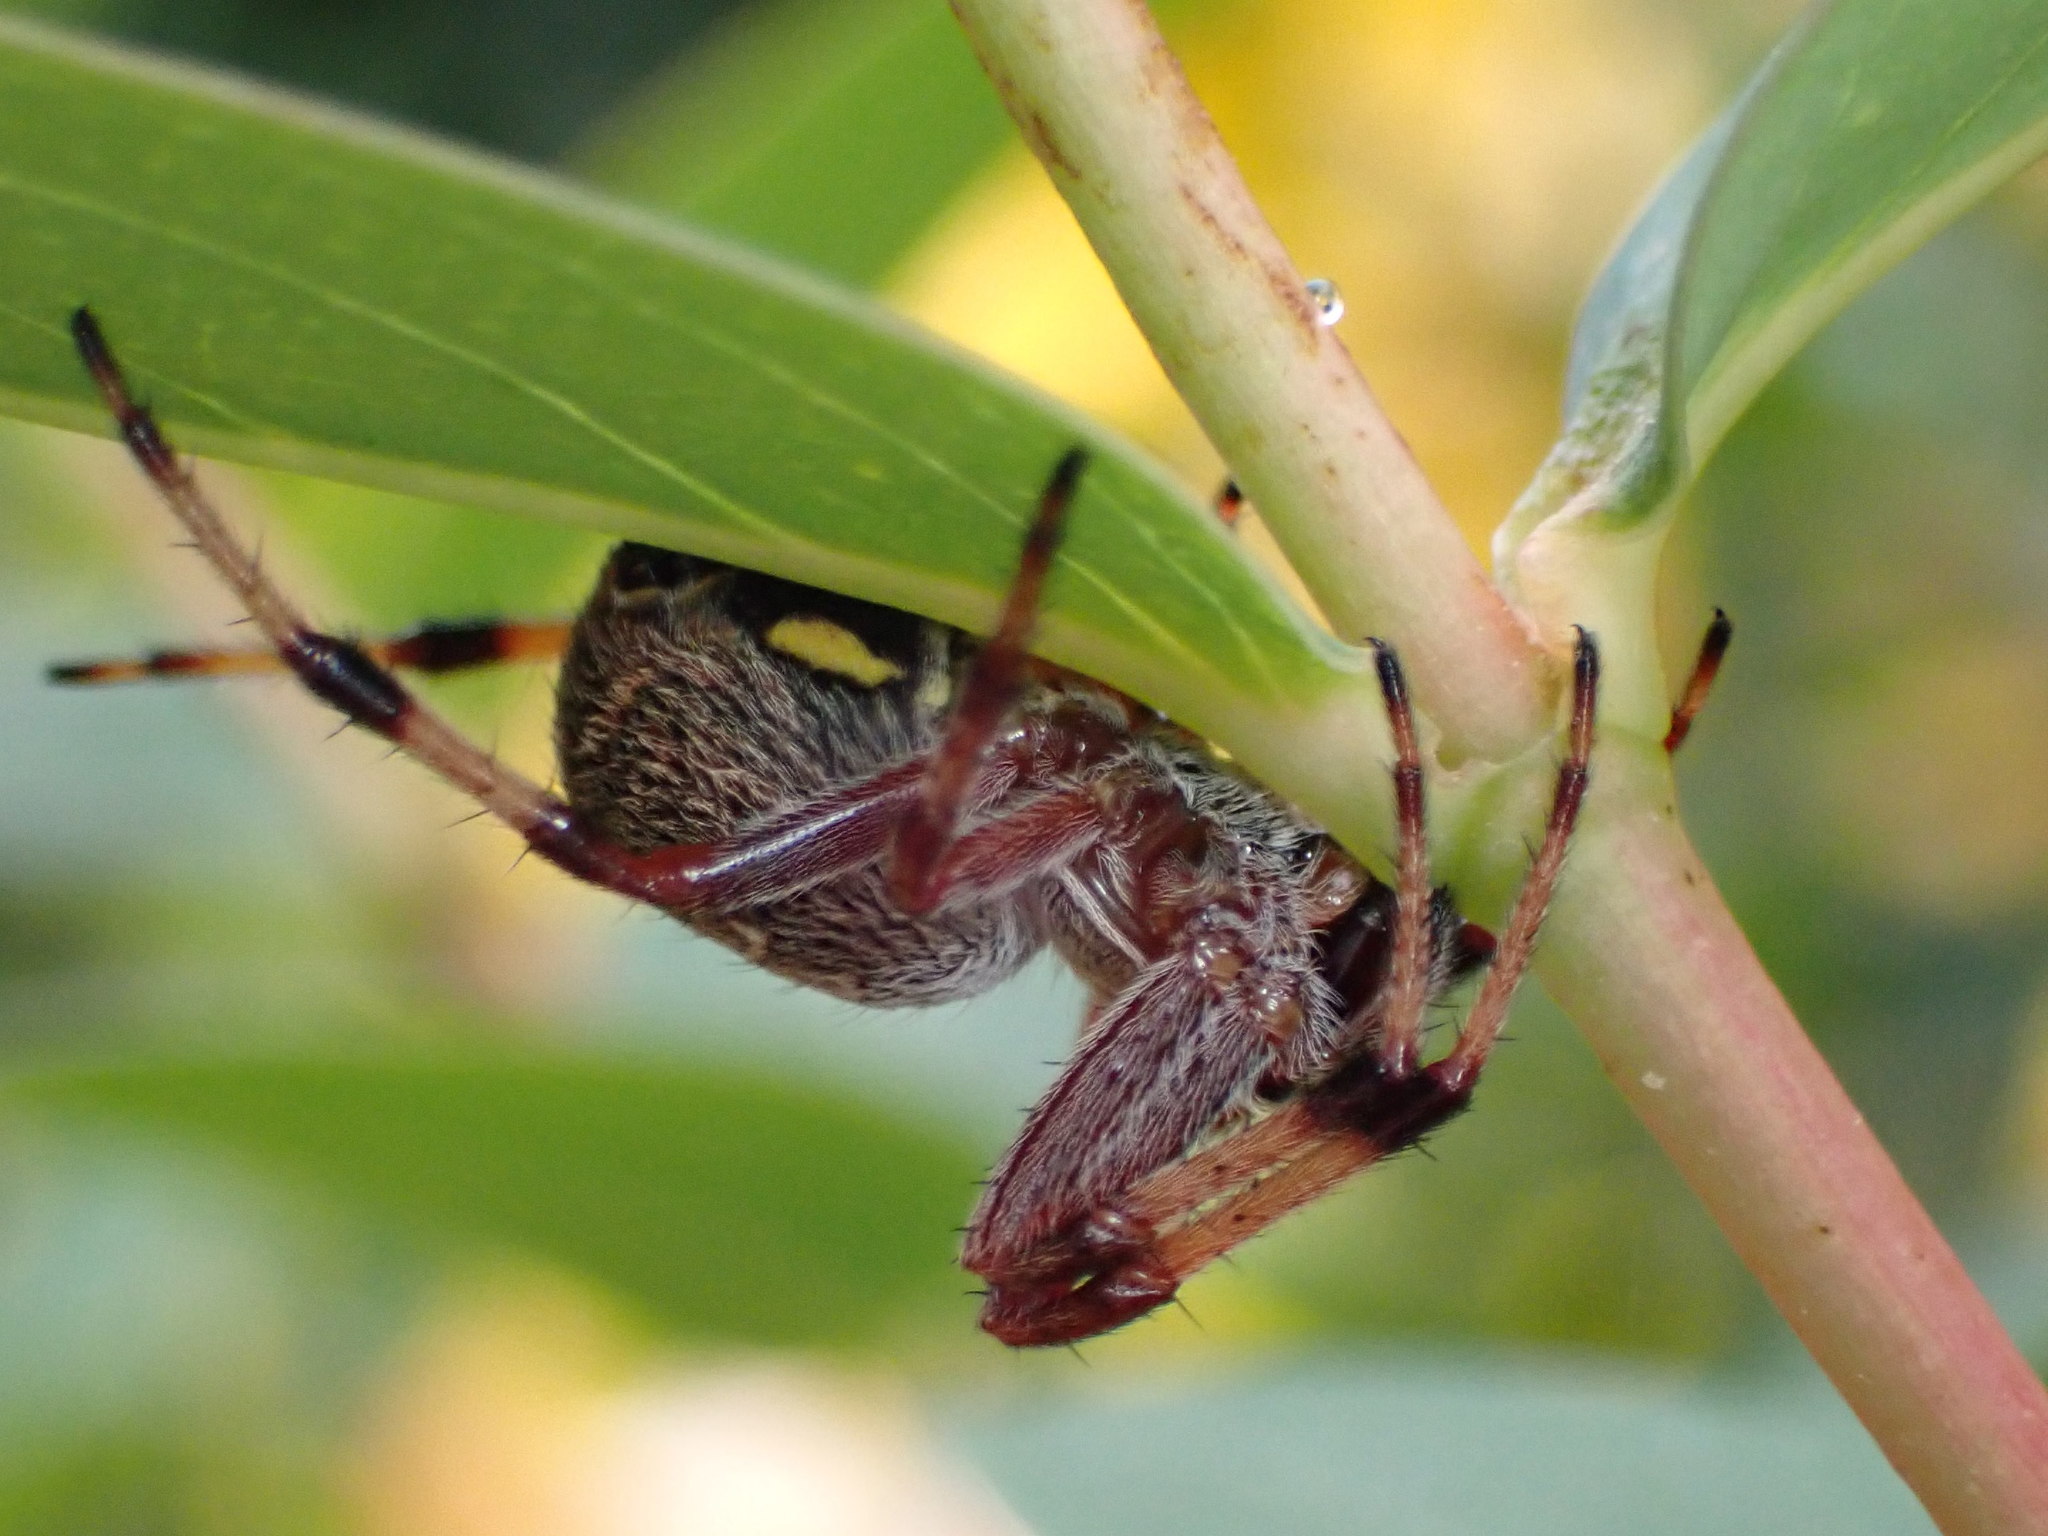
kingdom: Animalia
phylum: Arthropoda
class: Arachnida
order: Araneae
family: Araneidae
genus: Salsa
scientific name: Salsa fuliginata
